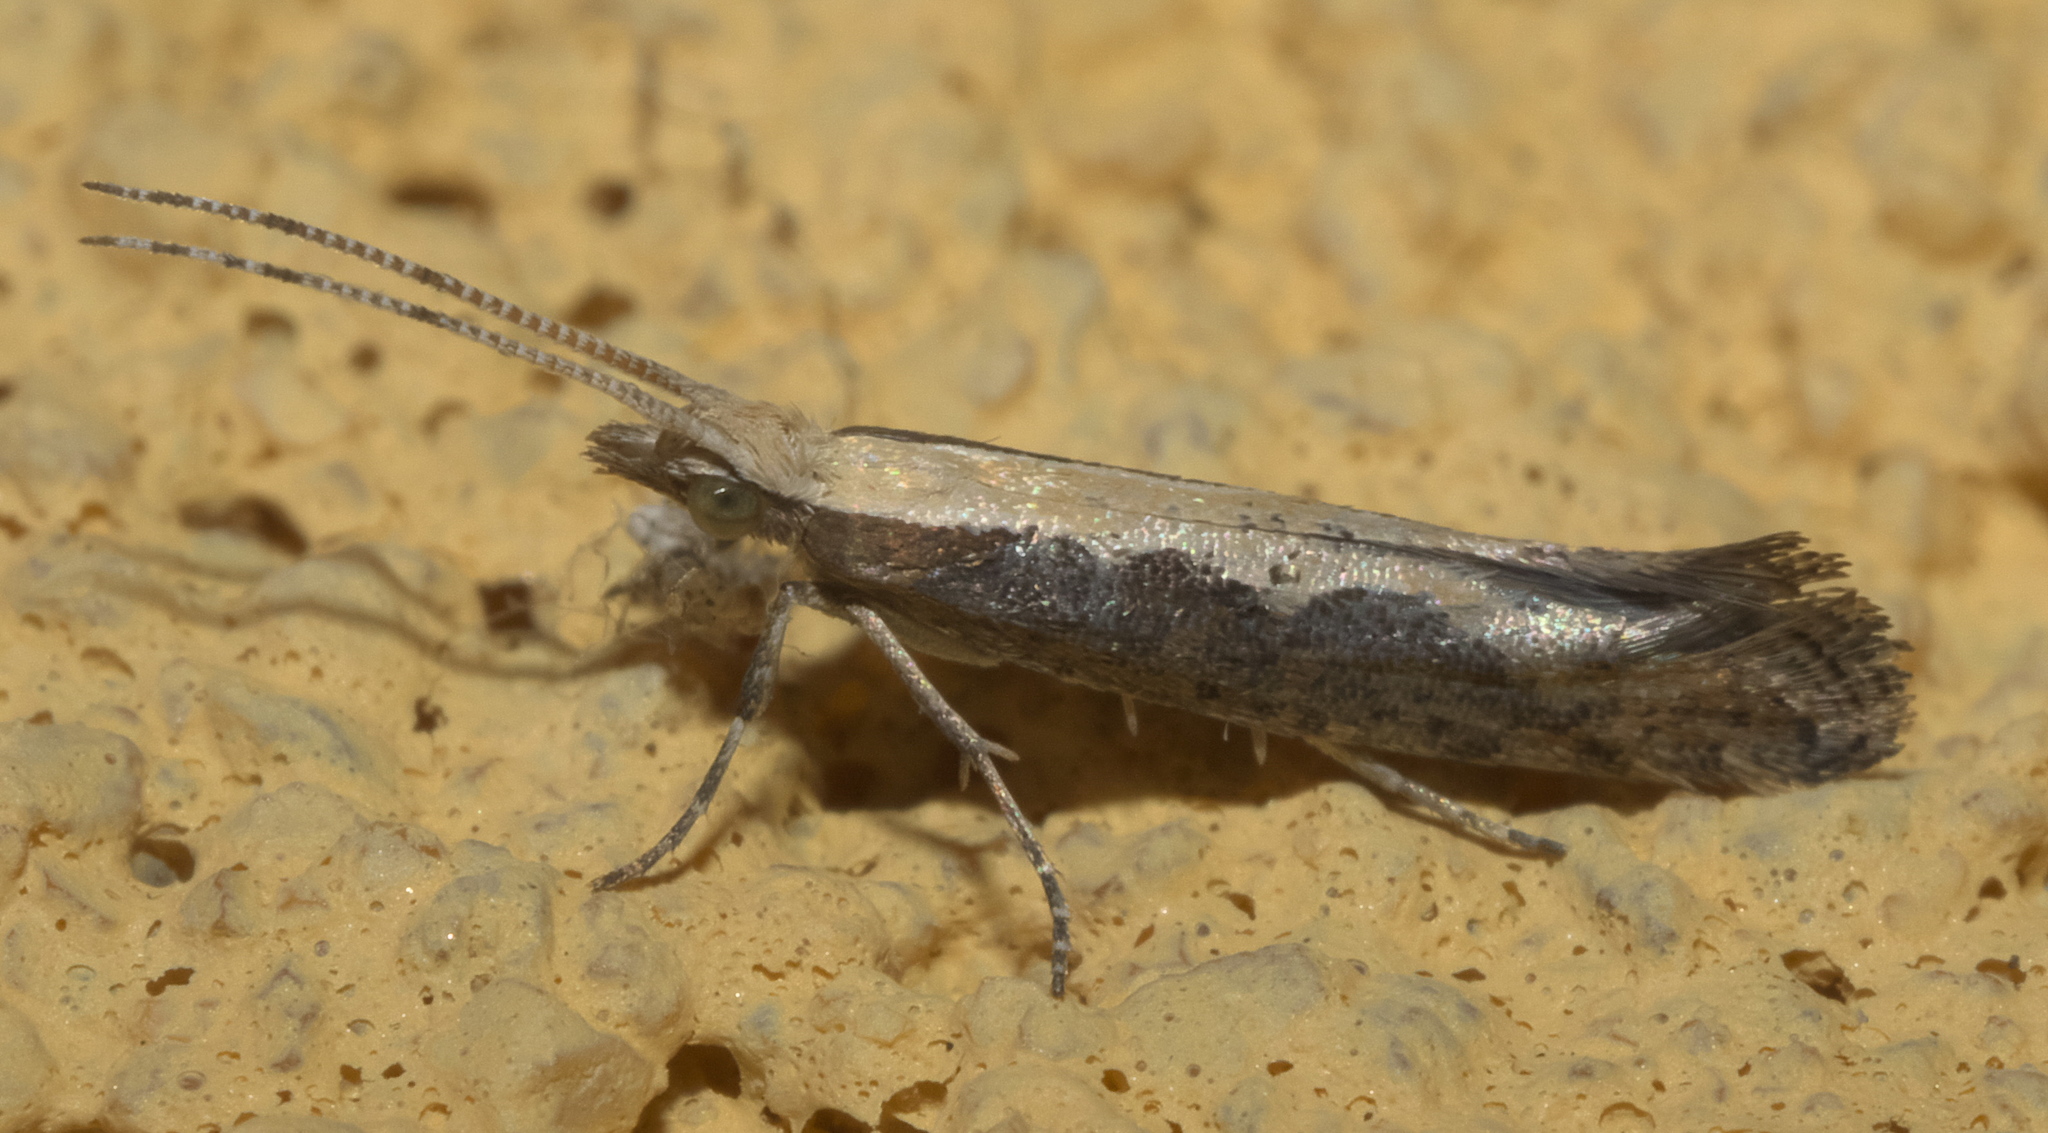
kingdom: Animalia
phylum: Arthropoda
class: Insecta
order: Lepidoptera
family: Plutellidae
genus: Plutella
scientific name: Plutella xylostella
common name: Diamond-back moth
